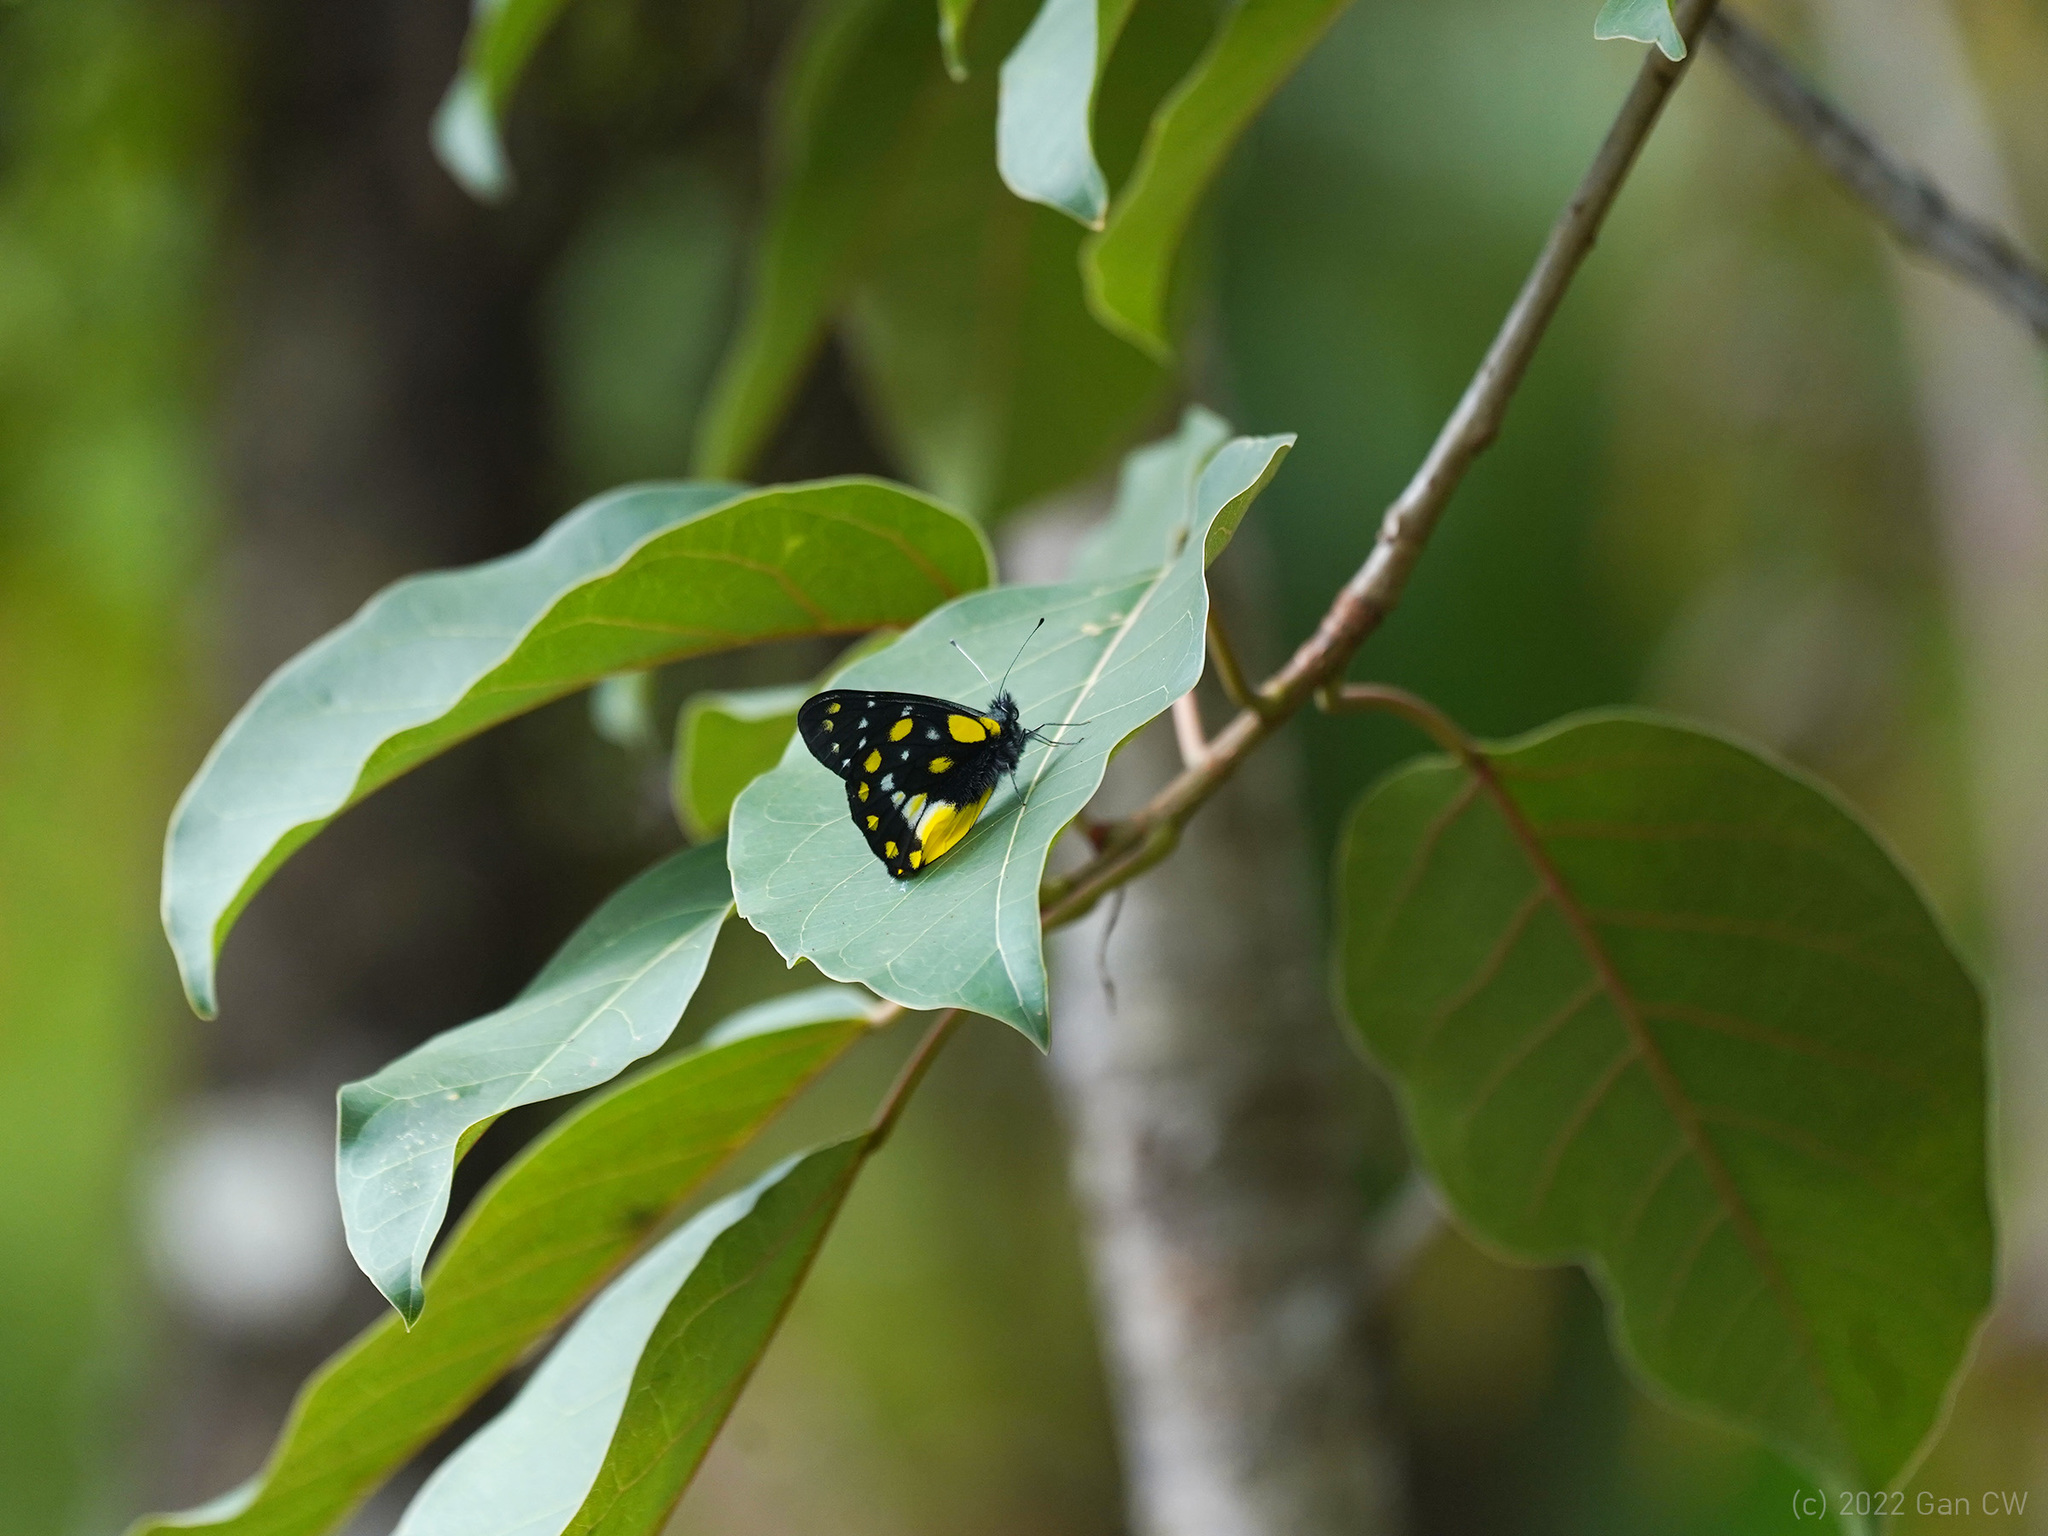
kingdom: Animalia
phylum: Arthropoda
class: Insecta
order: Lepidoptera
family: Pieridae
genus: Delias
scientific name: Delias belladonna
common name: Hill jezebel
